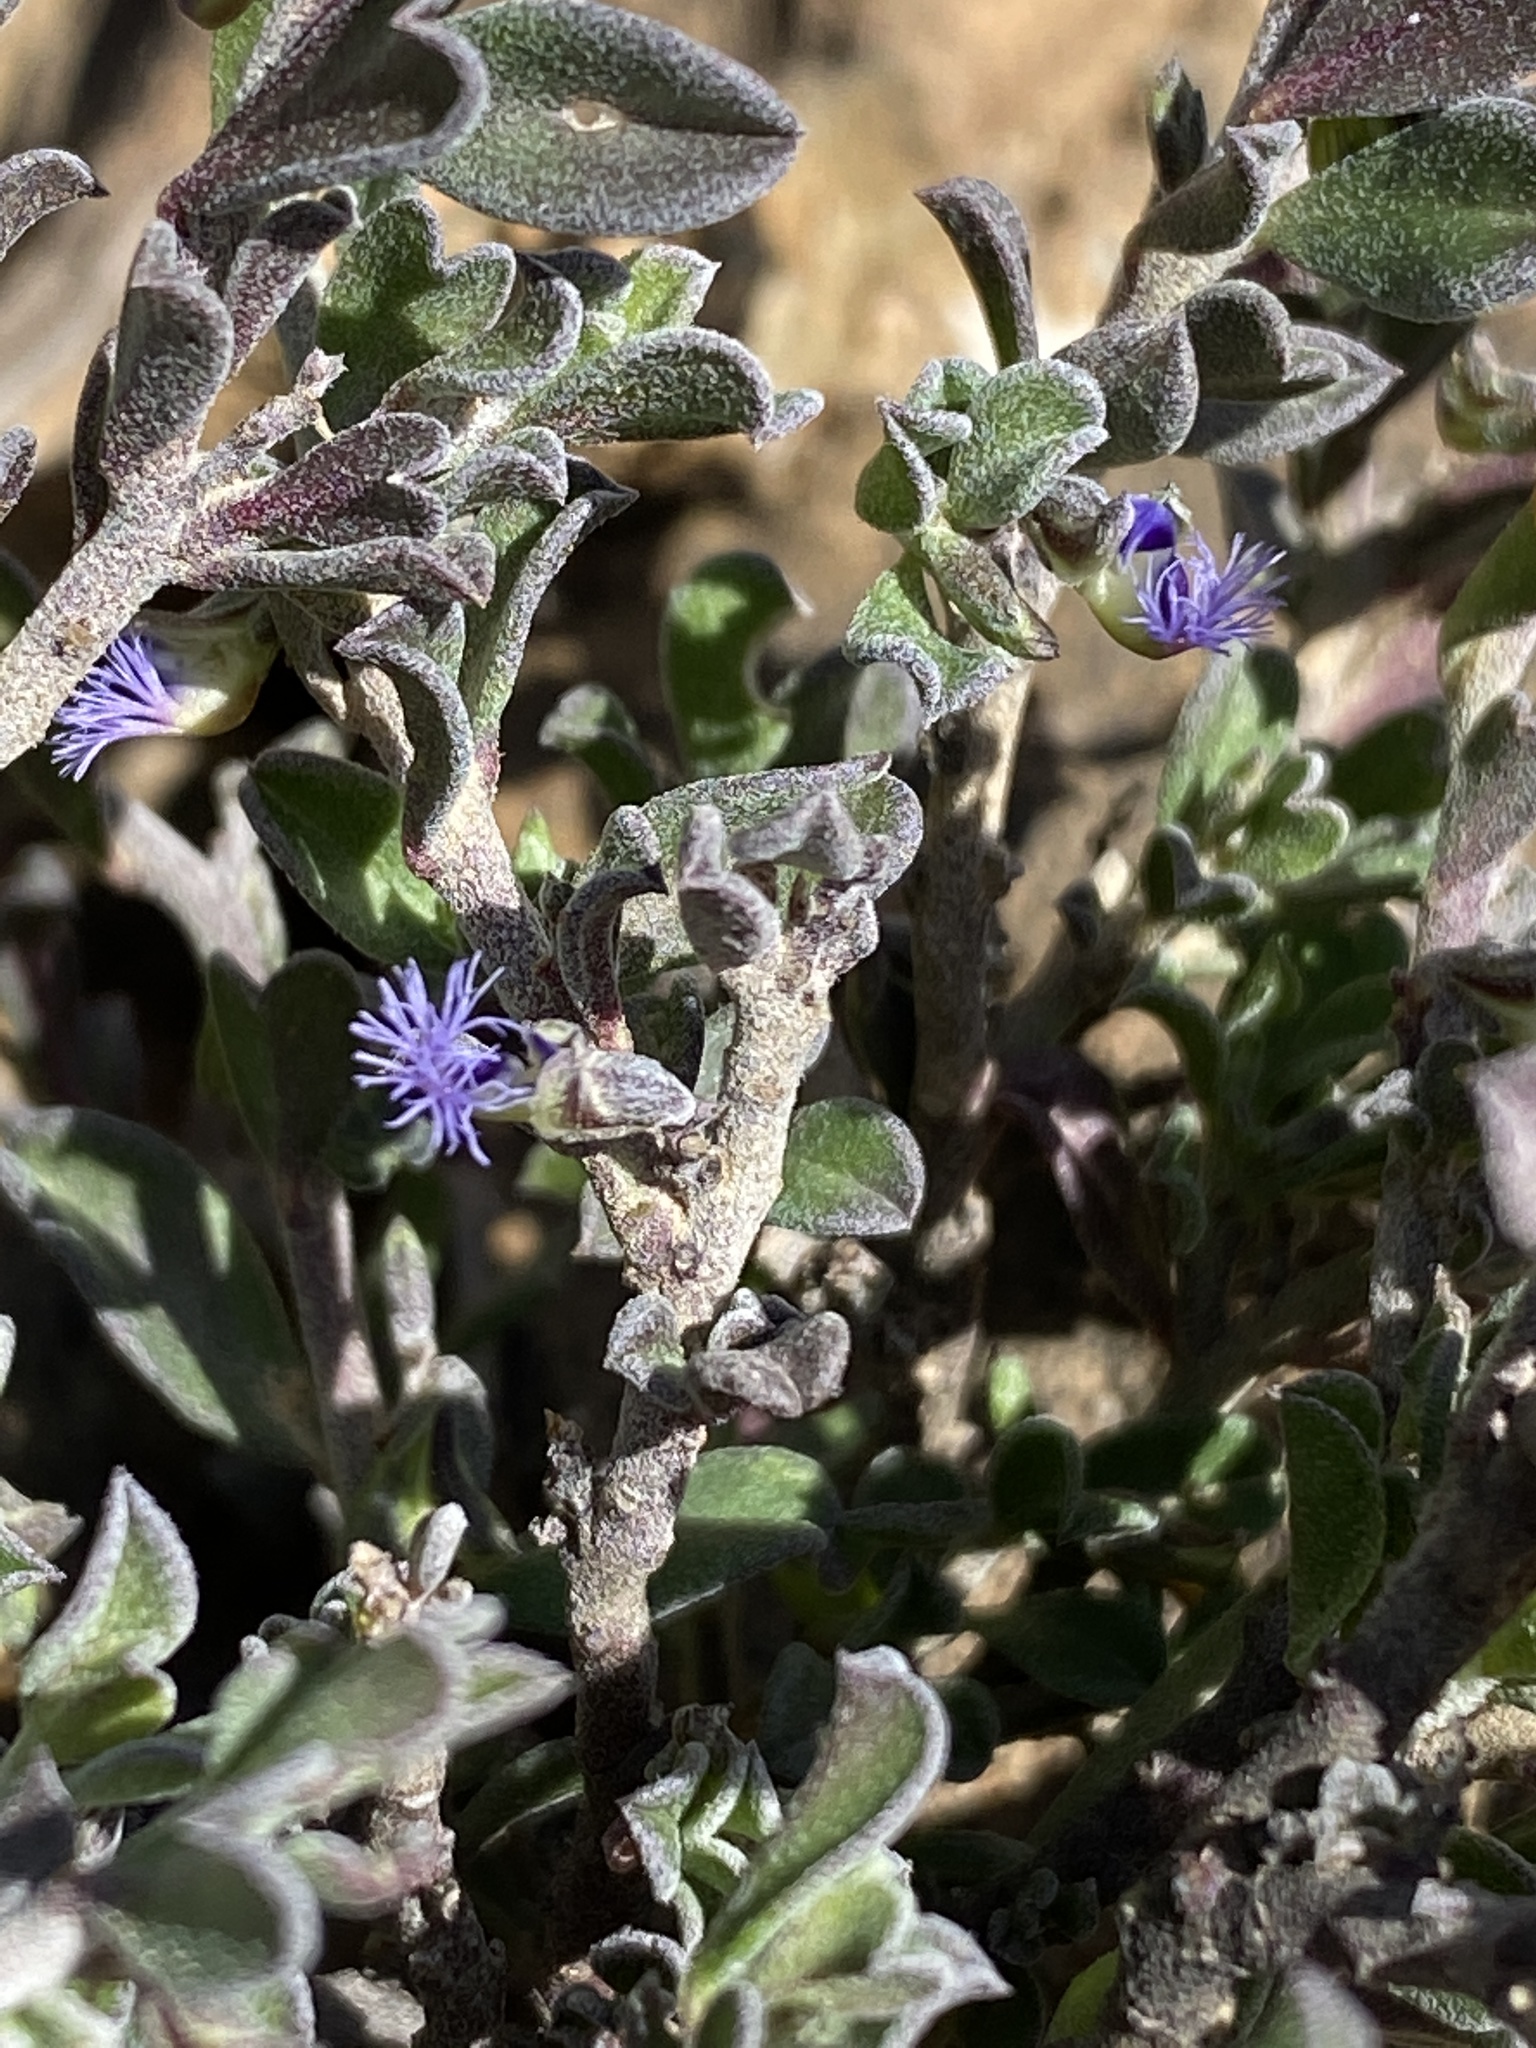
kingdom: Plantae
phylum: Tracheophyta
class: Magnoliopsida
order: Fabales
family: Polygalaceae
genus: Polygala
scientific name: Polygala asbestina
